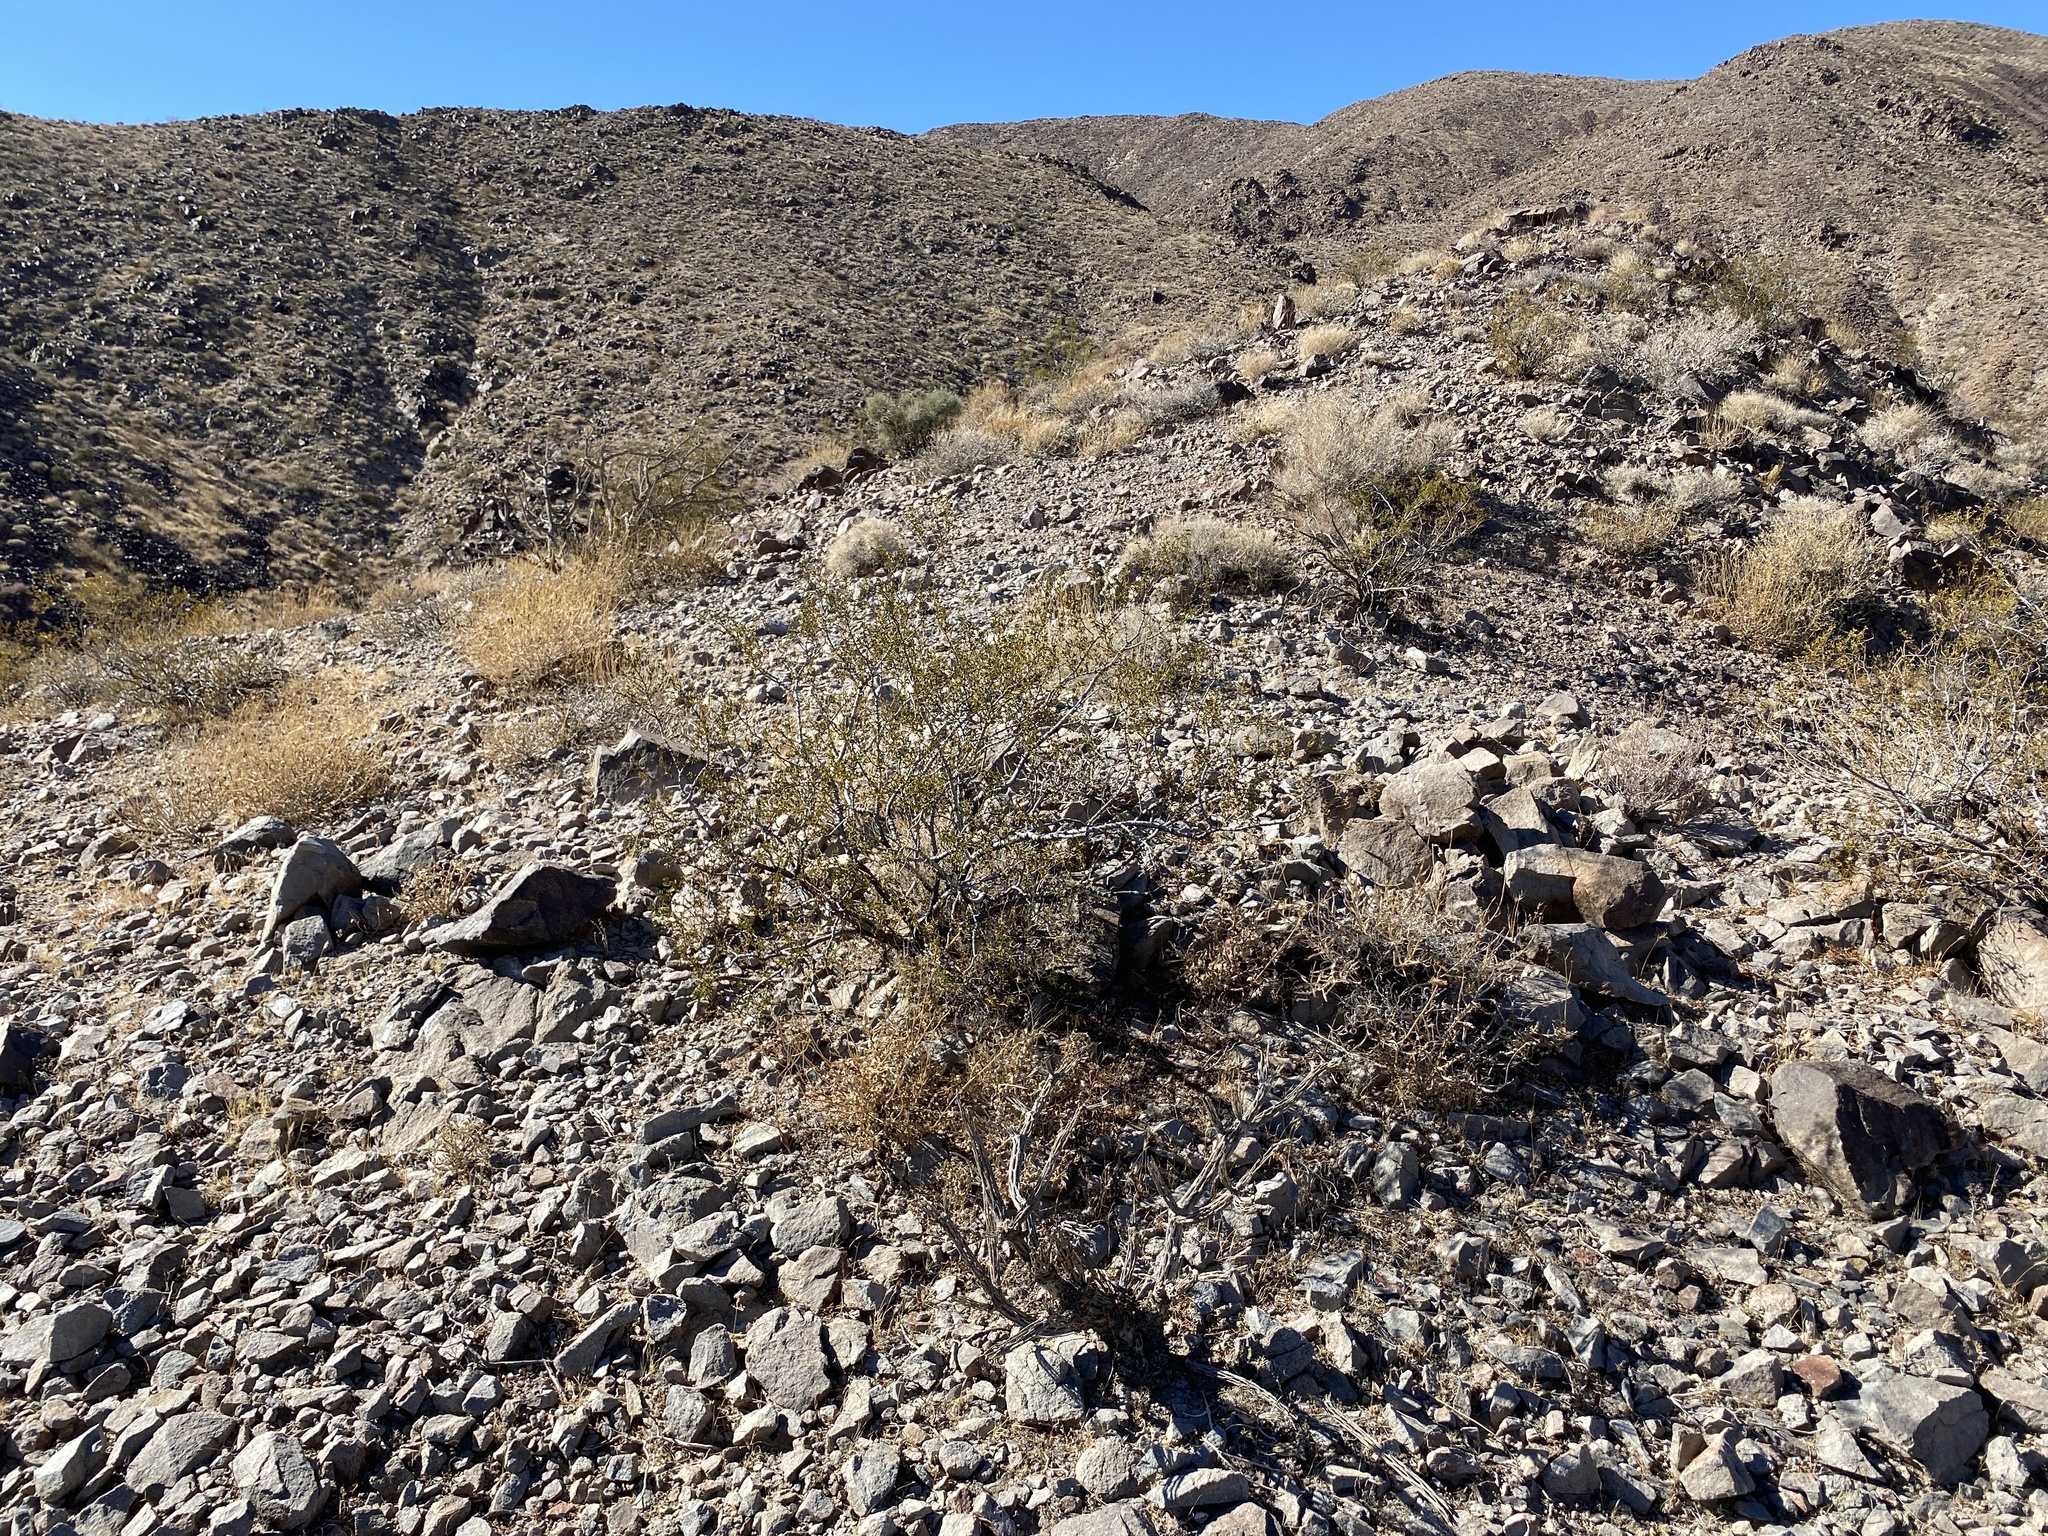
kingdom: Plantae
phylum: Tracheophyta
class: Magnoliopsida
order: Zygophyllales
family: Zygophyllaceae
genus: Larrea
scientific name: Larrea tridentata
